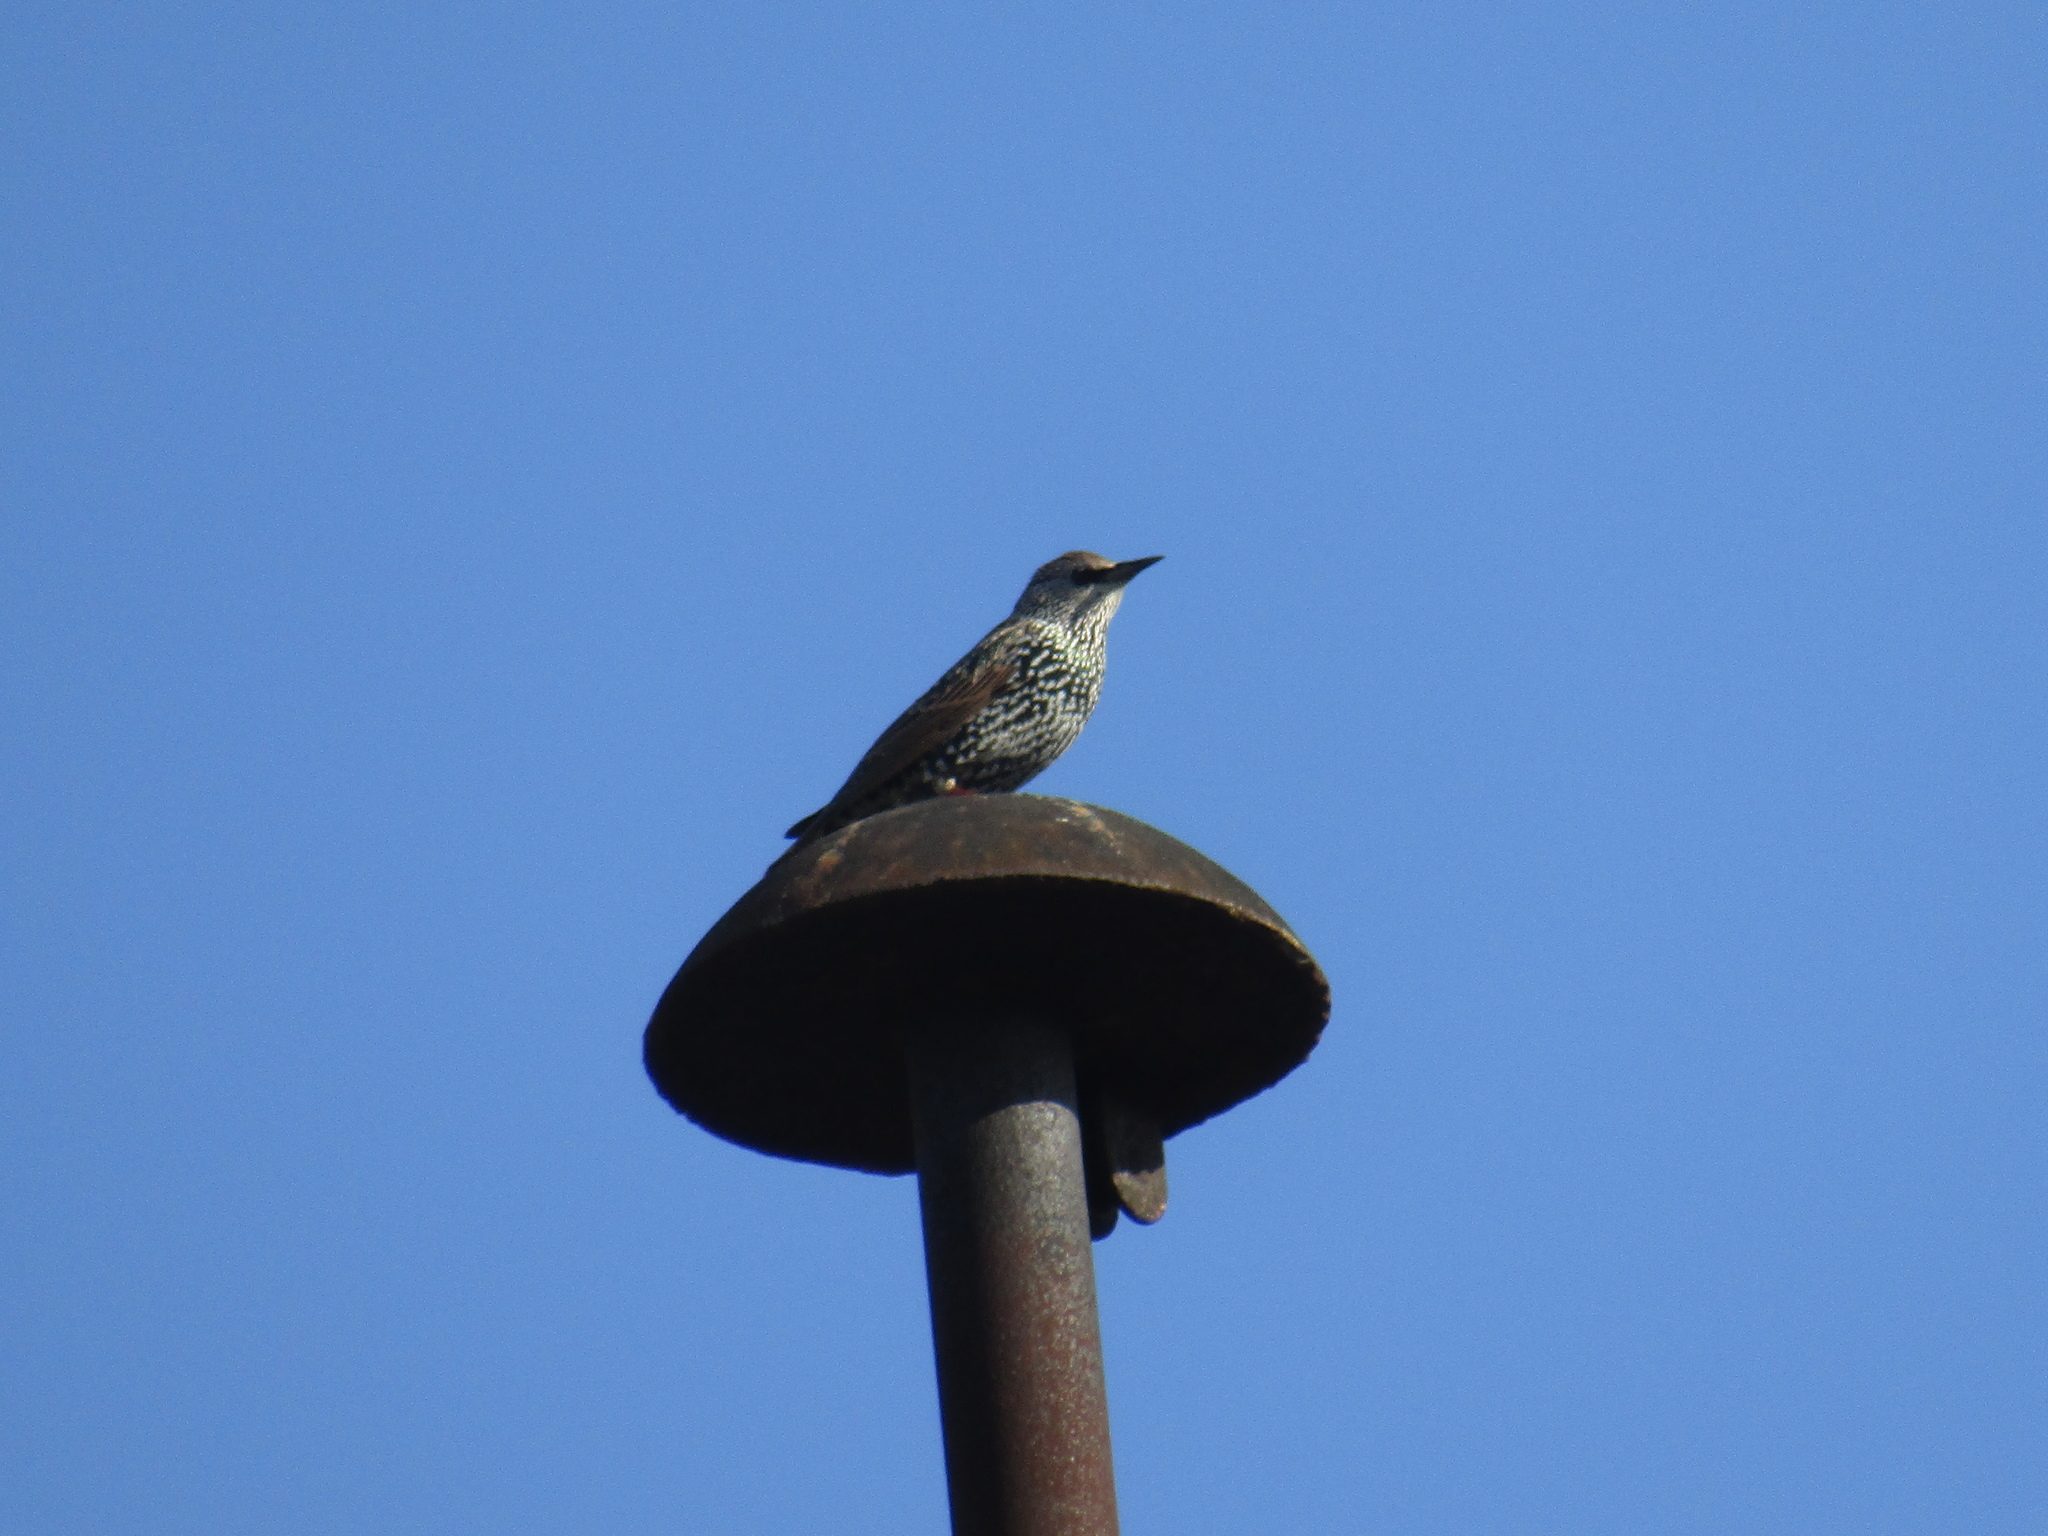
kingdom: Animalia
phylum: Chordata
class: Aves
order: Passeriformes
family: Sturnidae
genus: Sturnus
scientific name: Sturnus vulgaris
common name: Common starling
